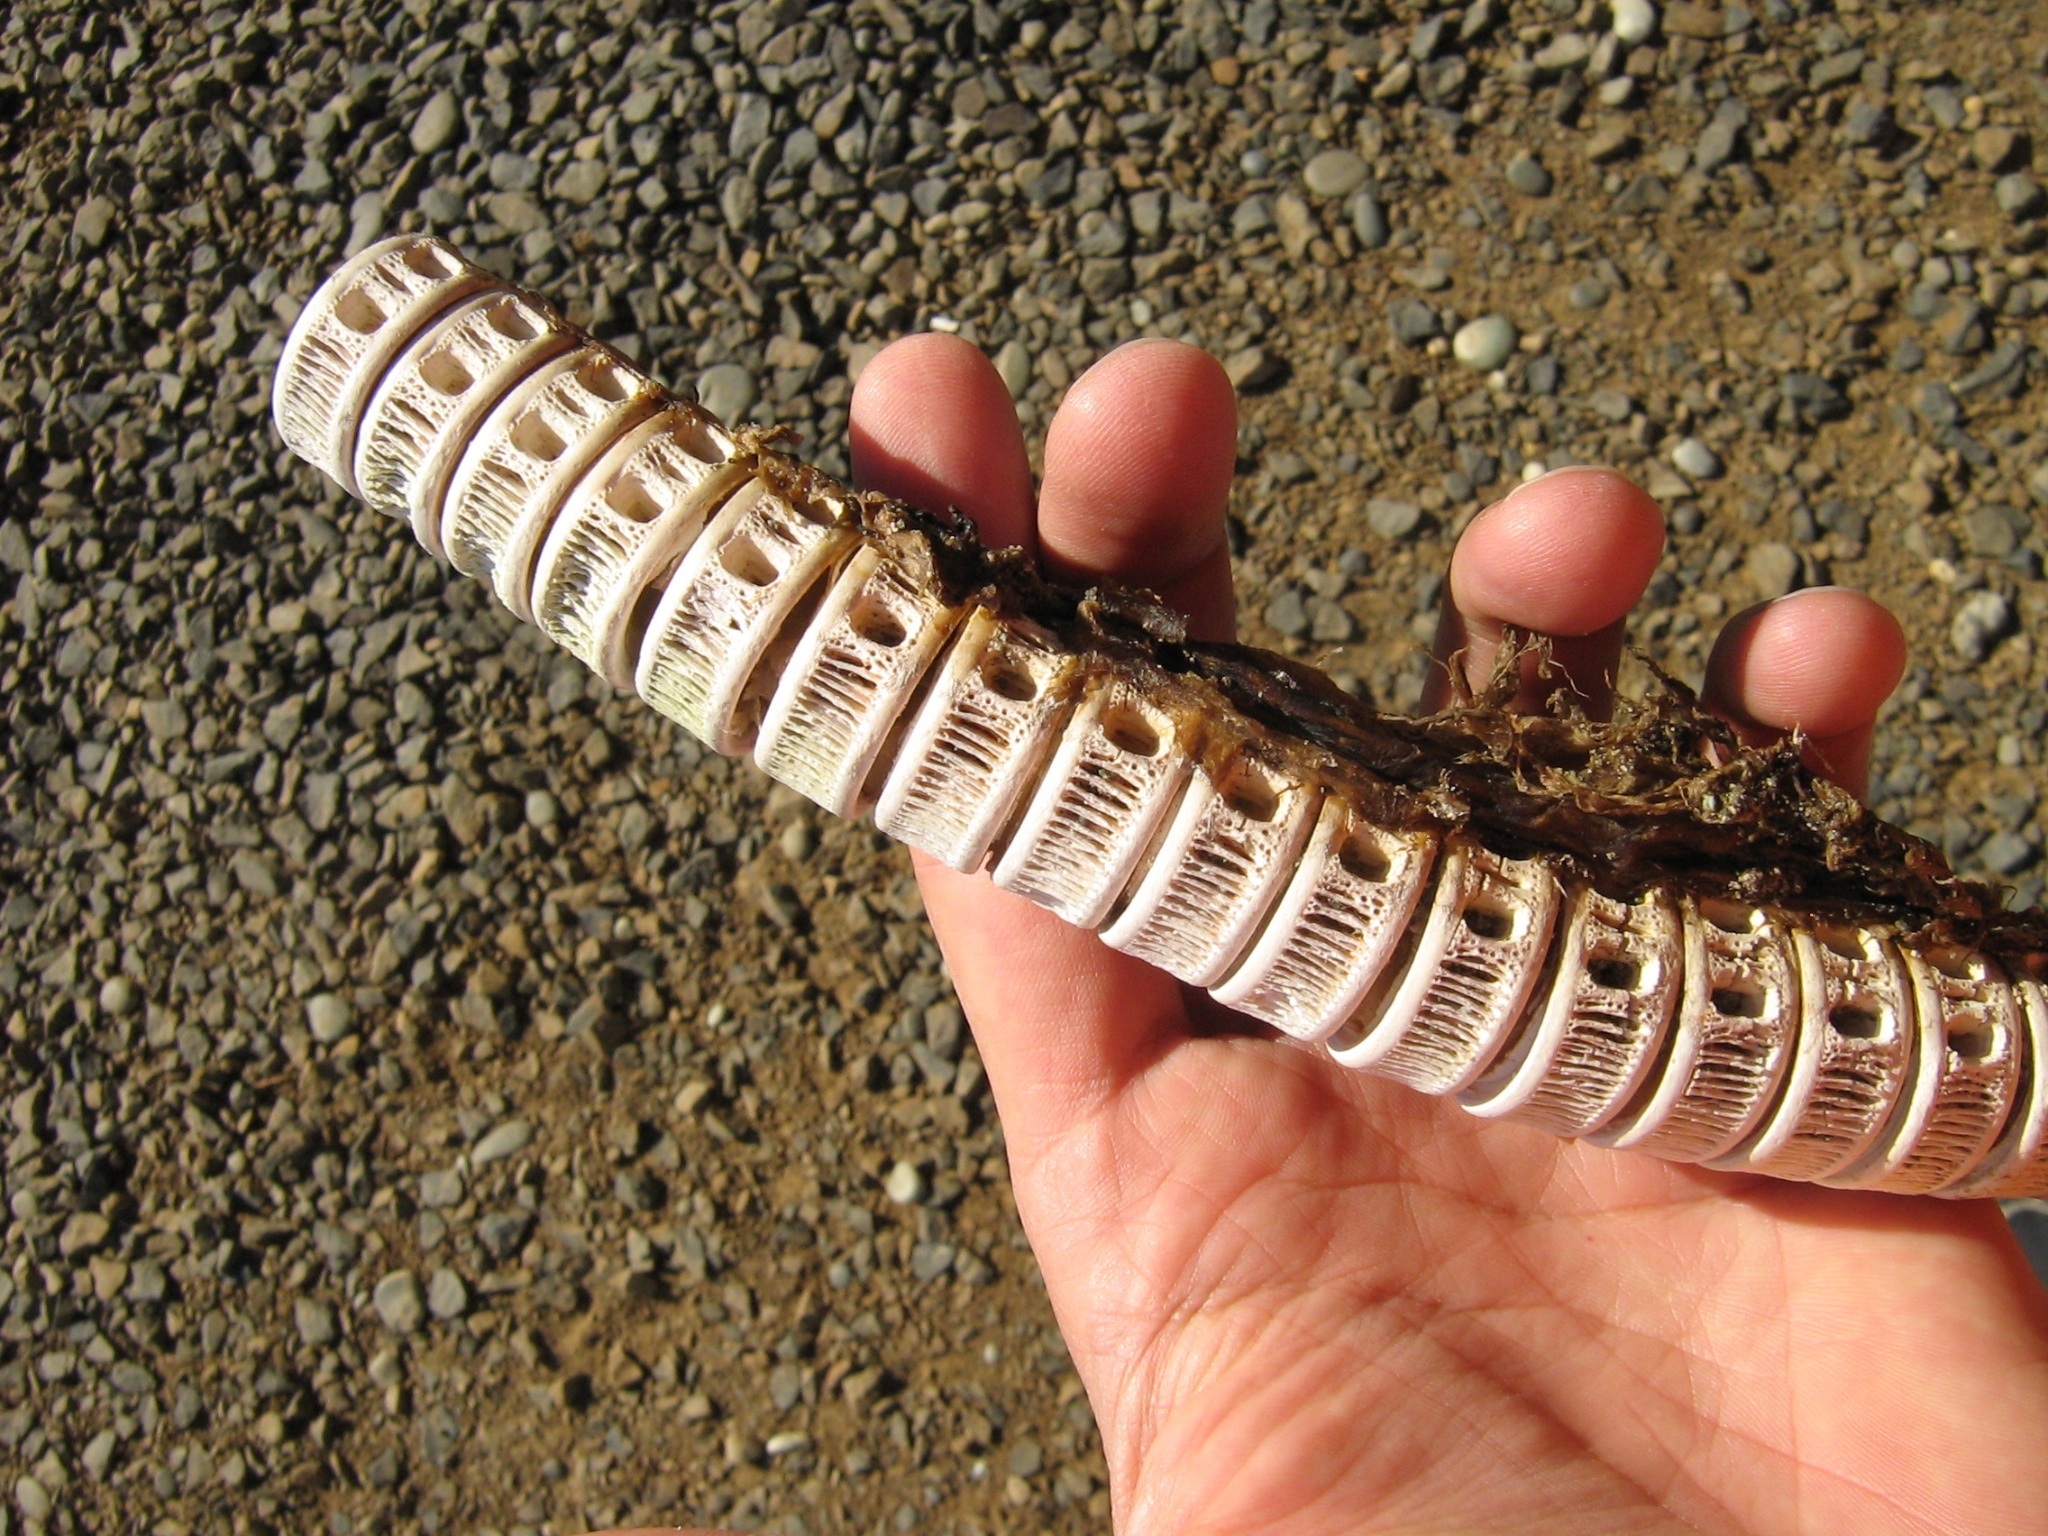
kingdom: Animalia
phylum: Chordata
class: Elasmobranchii
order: Lamniformes
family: Alopiidae
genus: Alopias
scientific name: Alopias vulpinus
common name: Thresher shark
